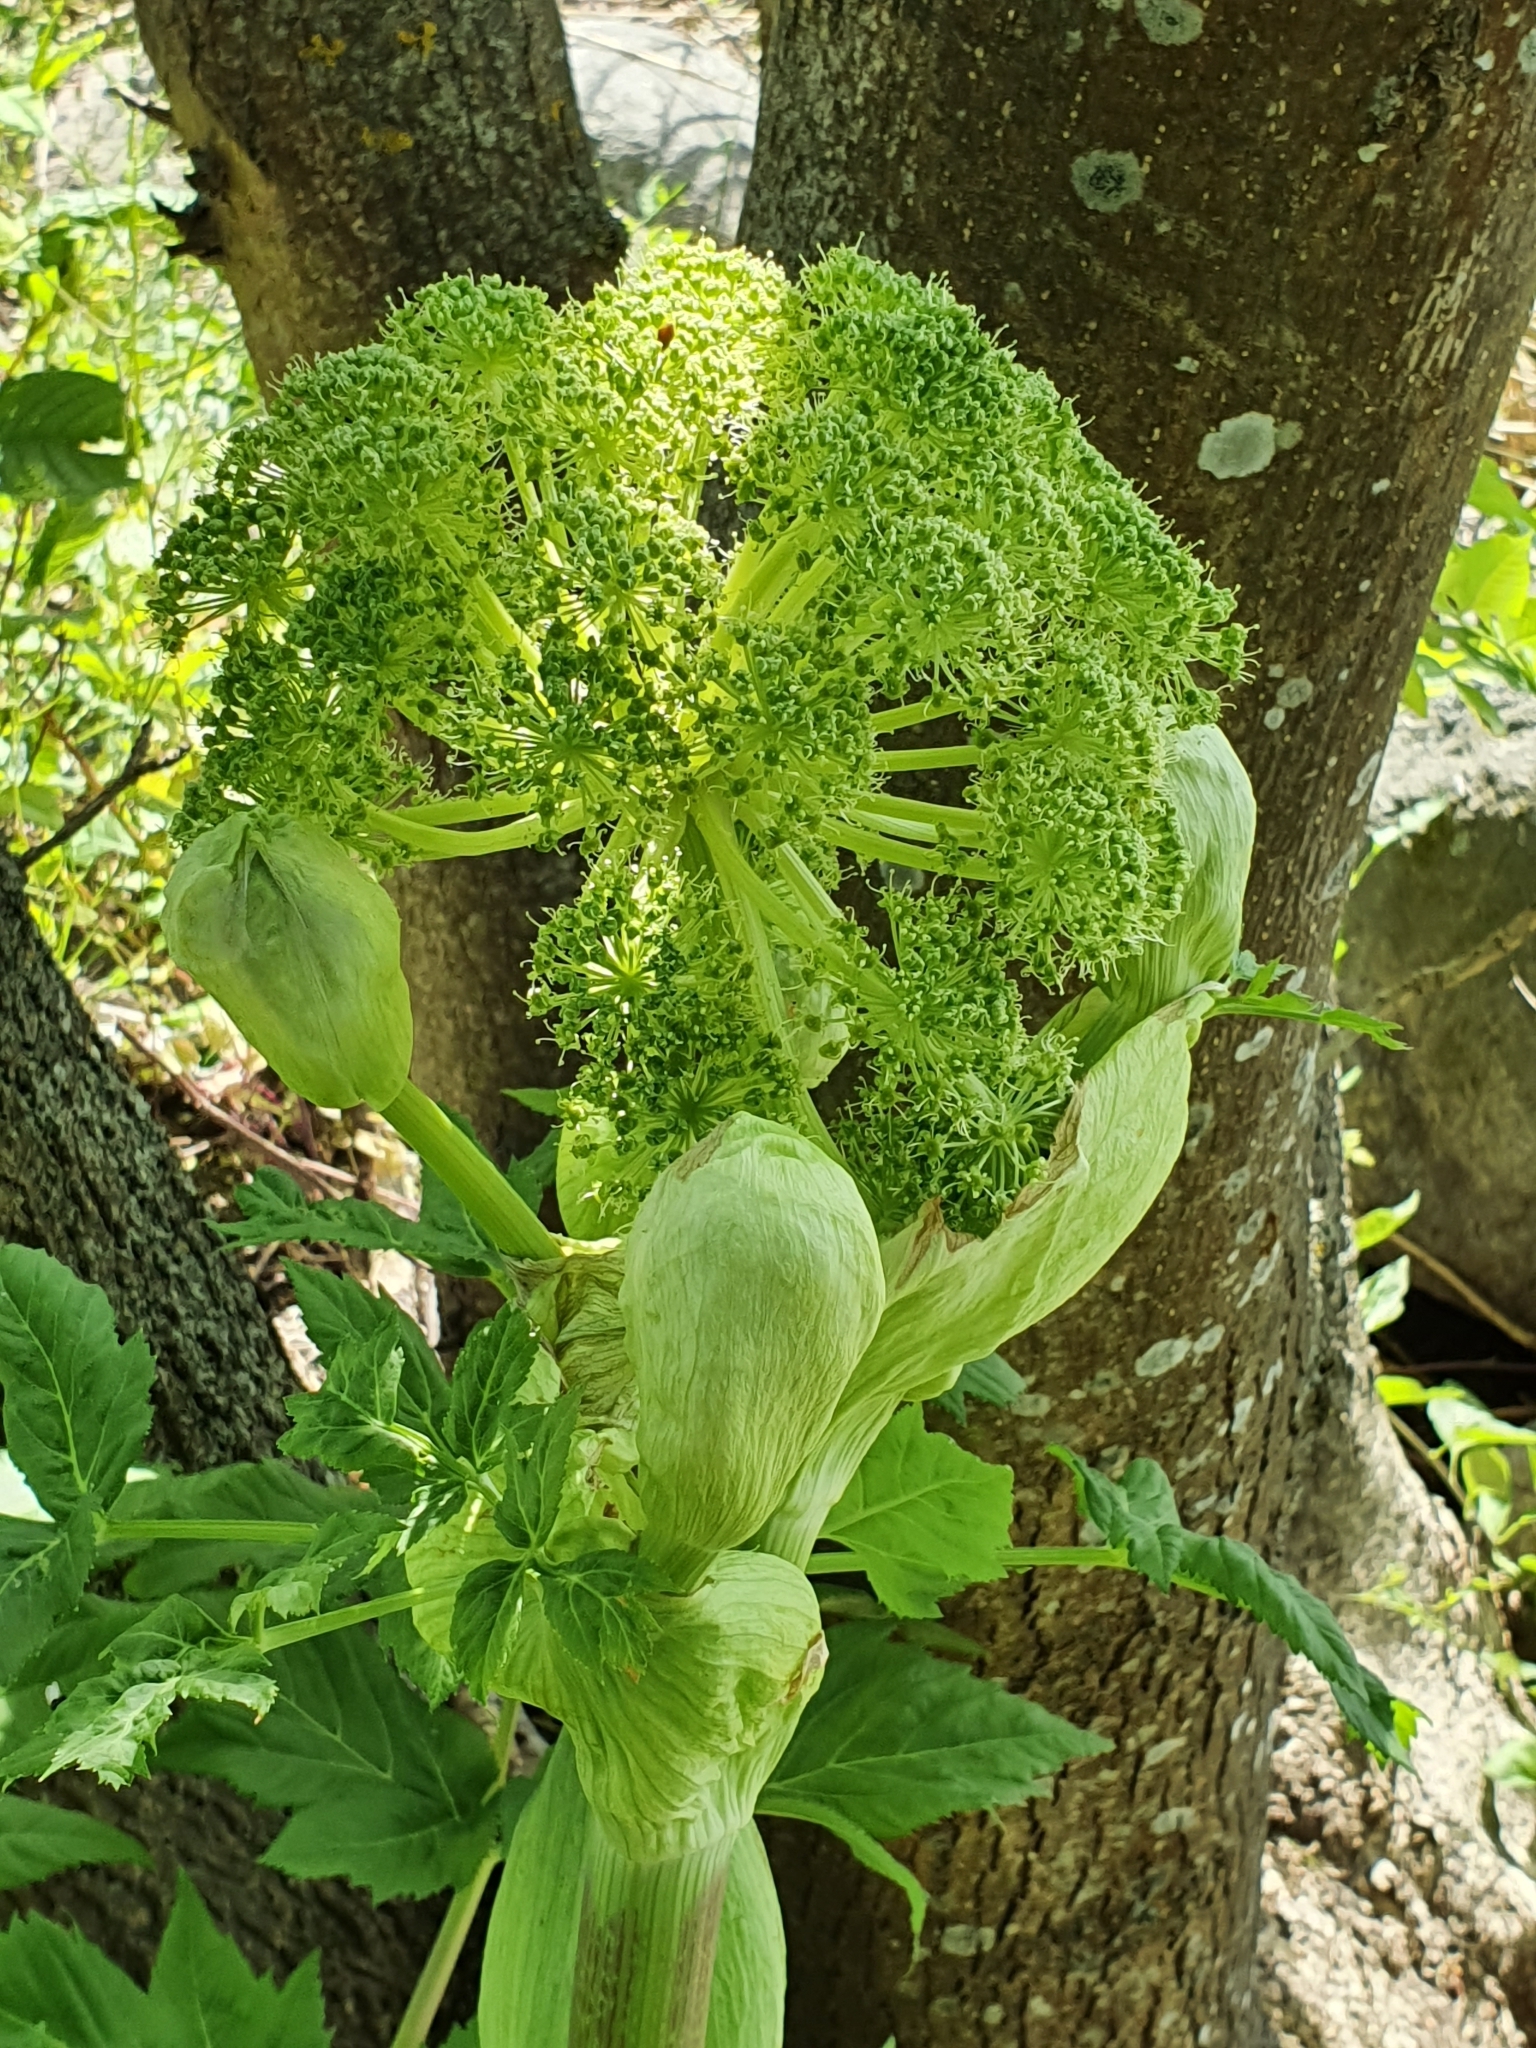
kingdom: Plantae
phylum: Tracheophyta
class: Magnoliopsida
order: Apiales
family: Apiaceae
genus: Angelica
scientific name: Angelica archangelica
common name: Garden angelica
